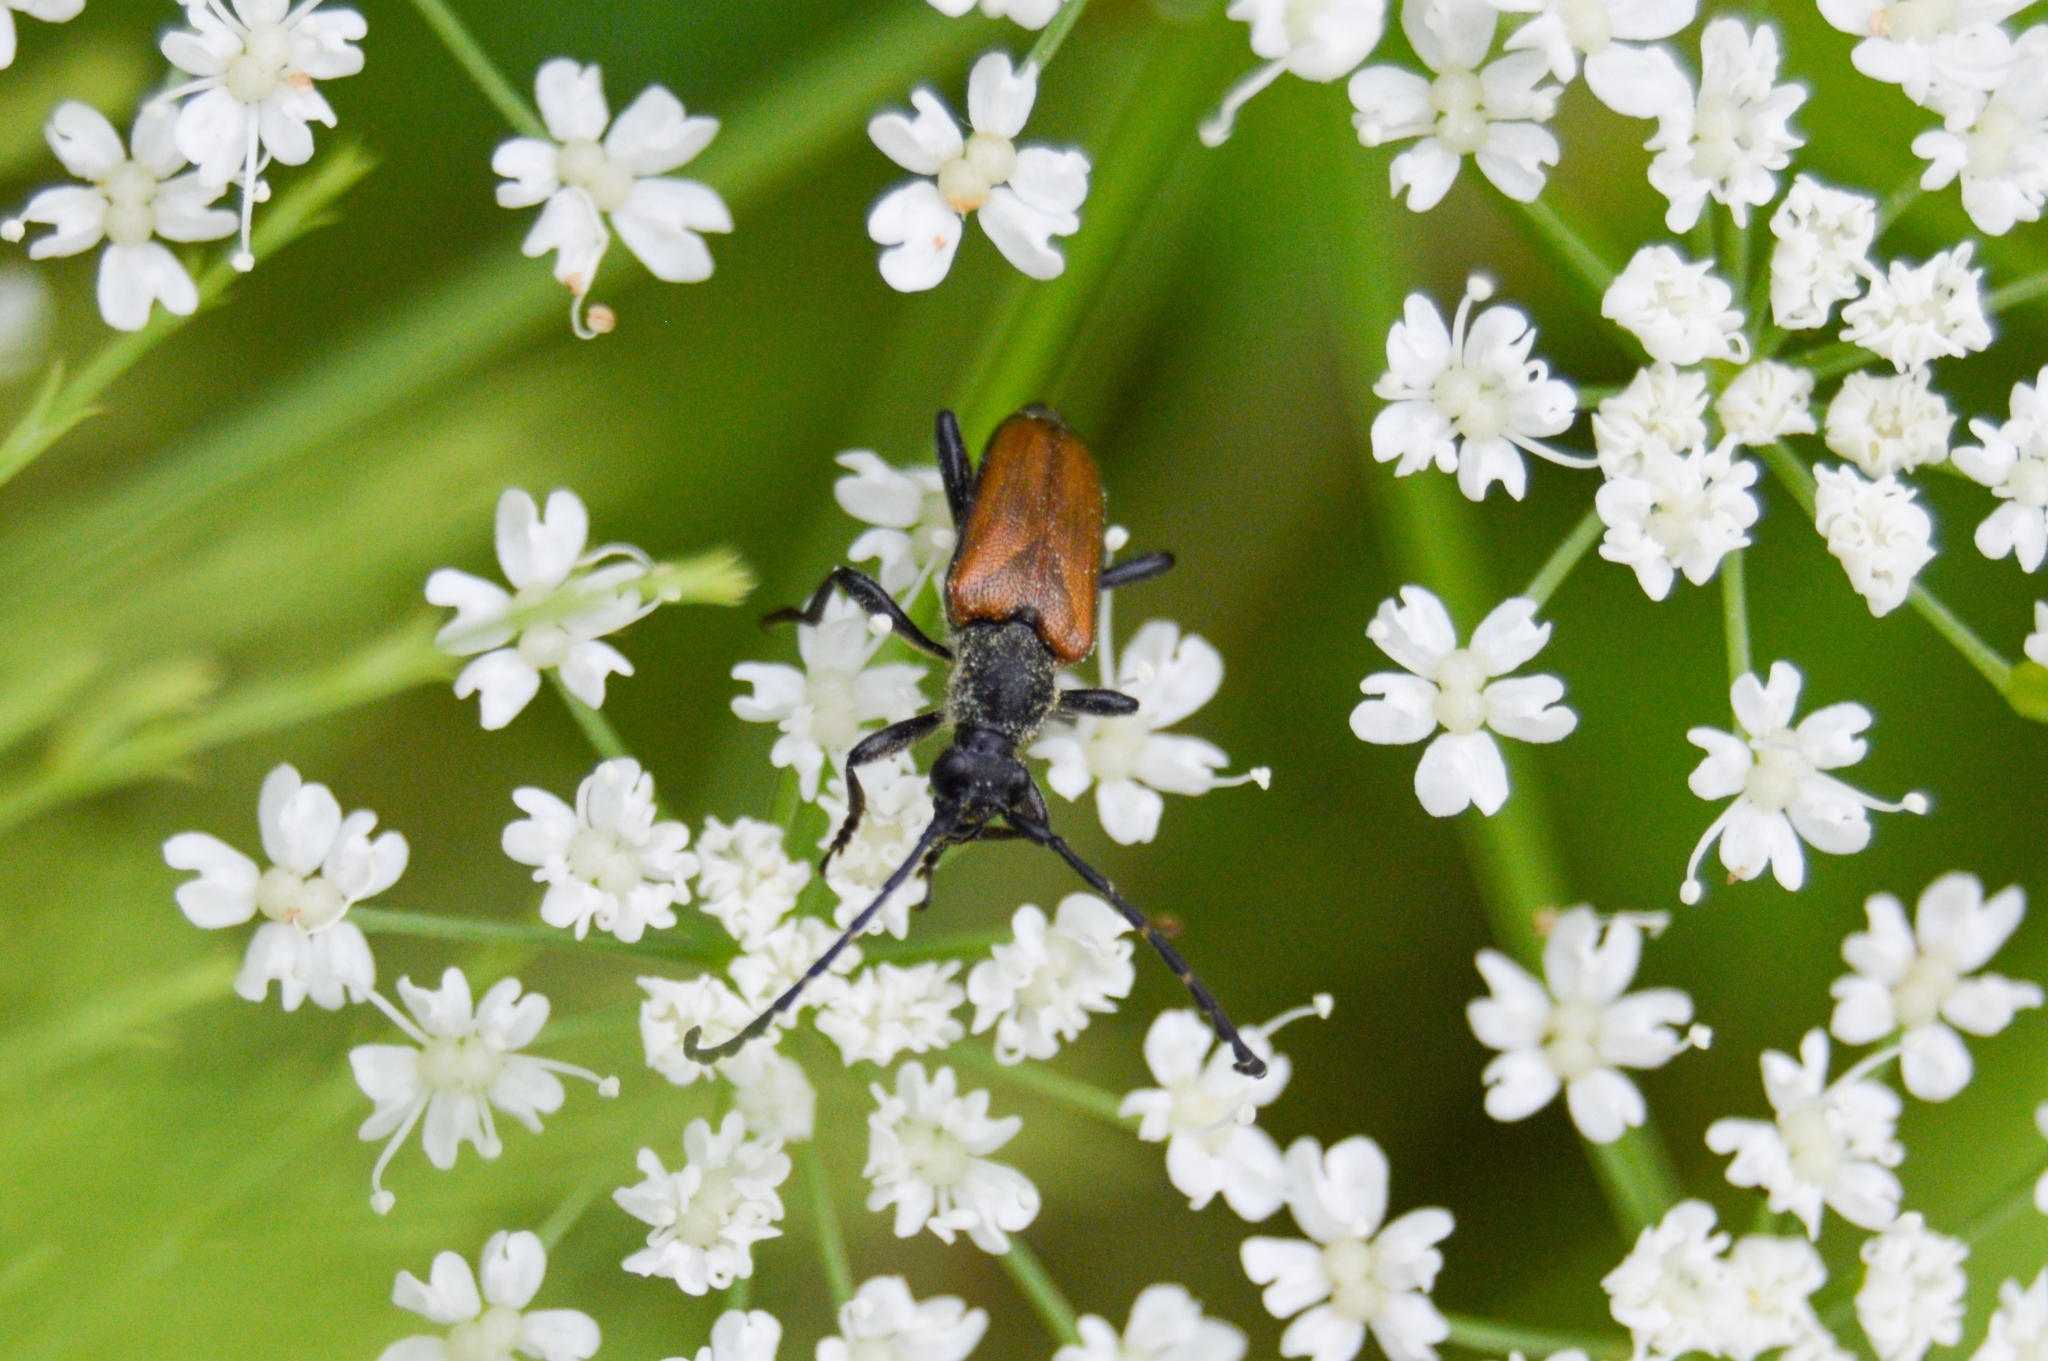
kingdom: Animalia
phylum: Arthropoda
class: Insecta
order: Coleoptera
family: Cerambycidae
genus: Paracorymbia
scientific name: Paracorymbia maculicornis
